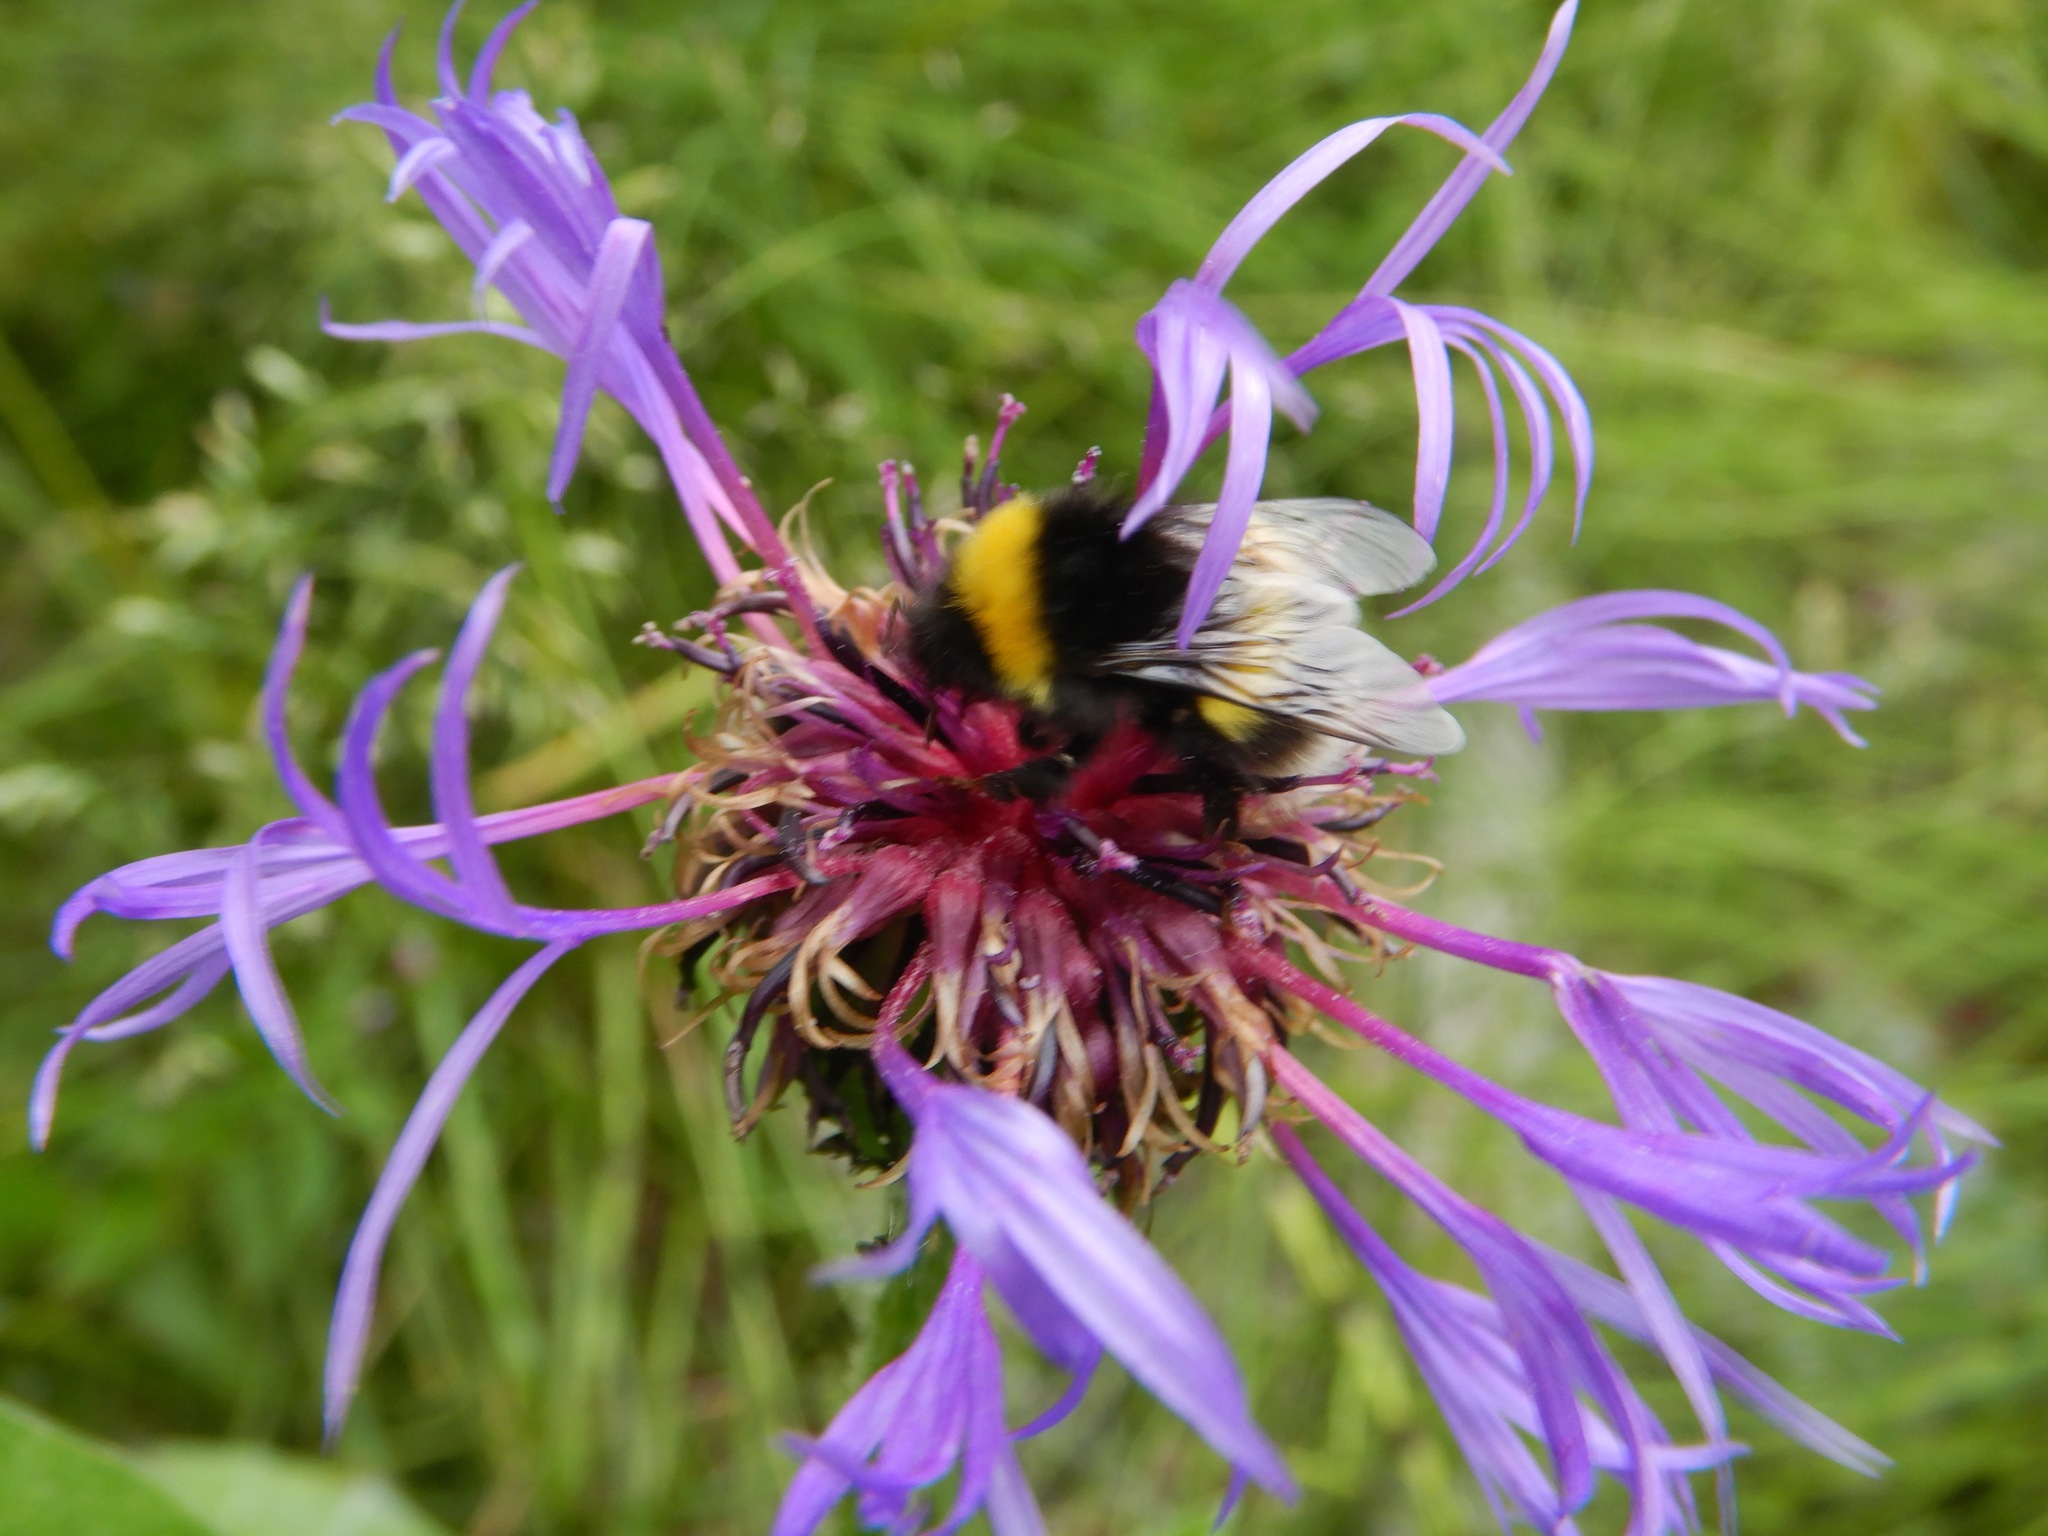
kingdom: Animalia
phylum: Arthropoda
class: Insecta
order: Hymenoptera
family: Apidae
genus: Bombus
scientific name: Bombus cryptarum
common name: Cryptic bumblebee
